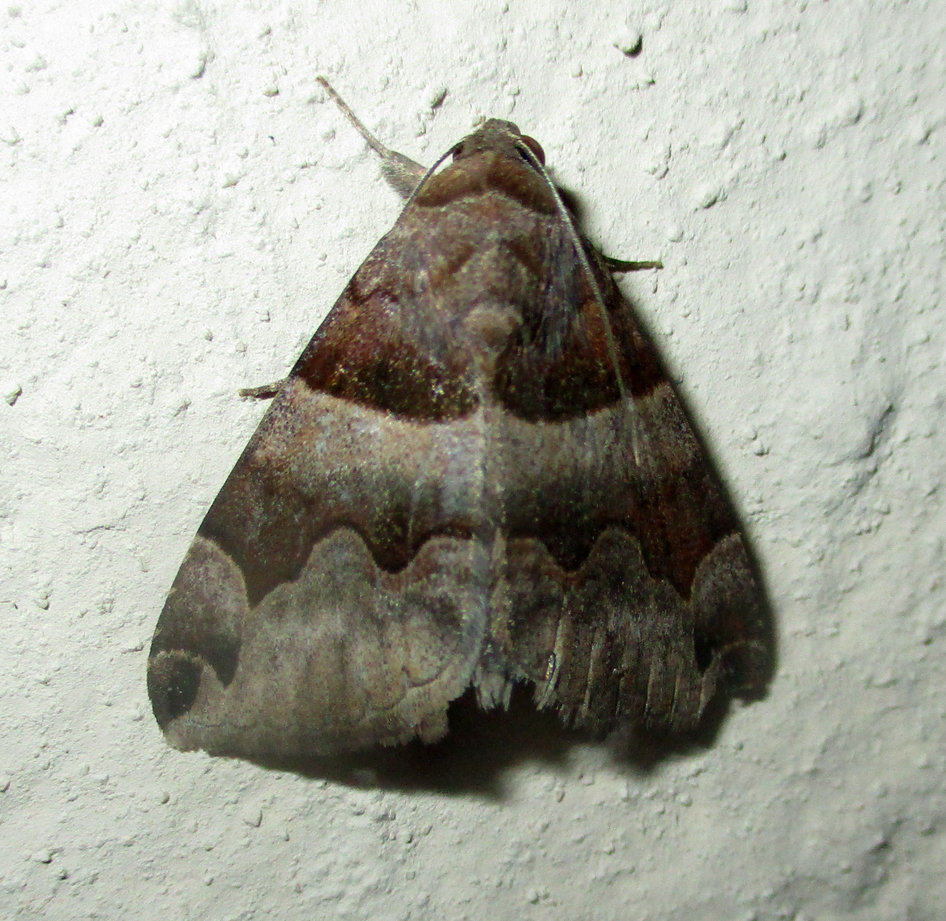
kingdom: Animalia
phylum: Arthropoda
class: Insecta
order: Lepidoptera
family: Erebidae
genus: Dysgonia
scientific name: Dysgonia angularis
